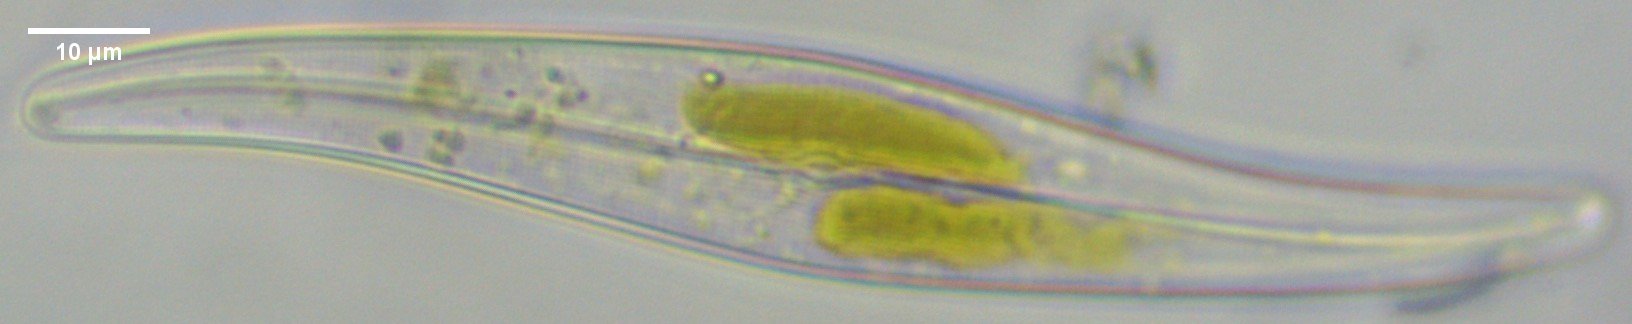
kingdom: Chromista
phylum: Ochrophyta
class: Bacillariophyceae
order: Naviculales
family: Pleurosigmataceae
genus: Gyrosigma
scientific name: Gyrosigma acuminatum
